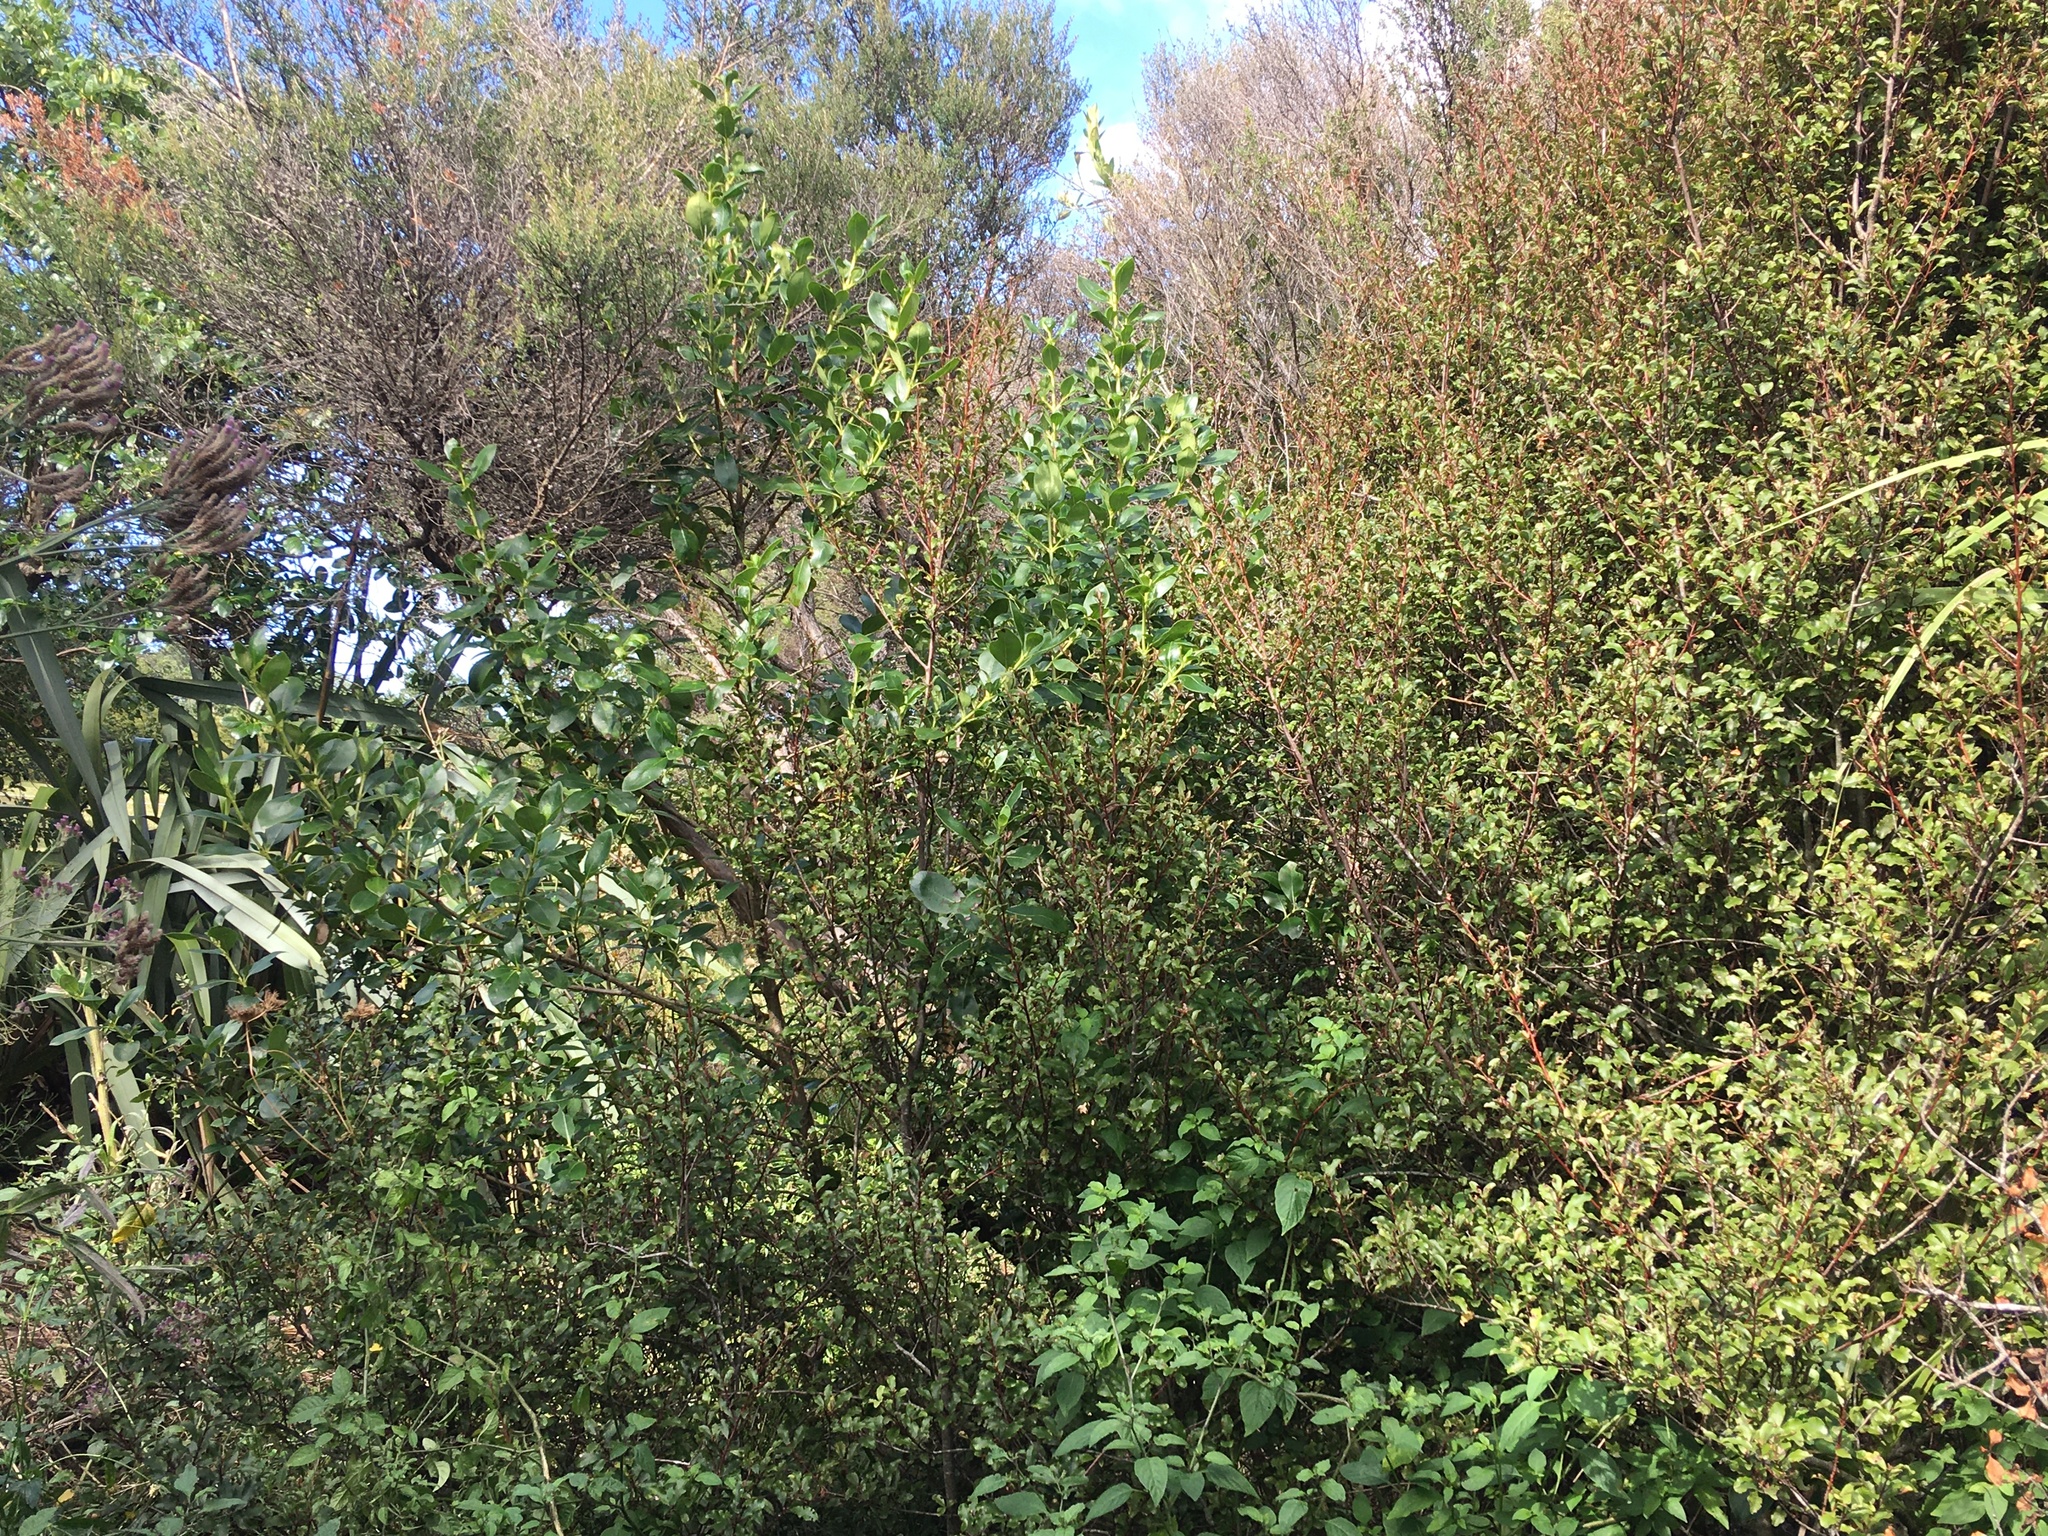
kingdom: Plantae
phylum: Tracheophyta
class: Magnoliopsida
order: Gentianales
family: Rubiaceae
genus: Coprosma
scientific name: Coprosma robusta
